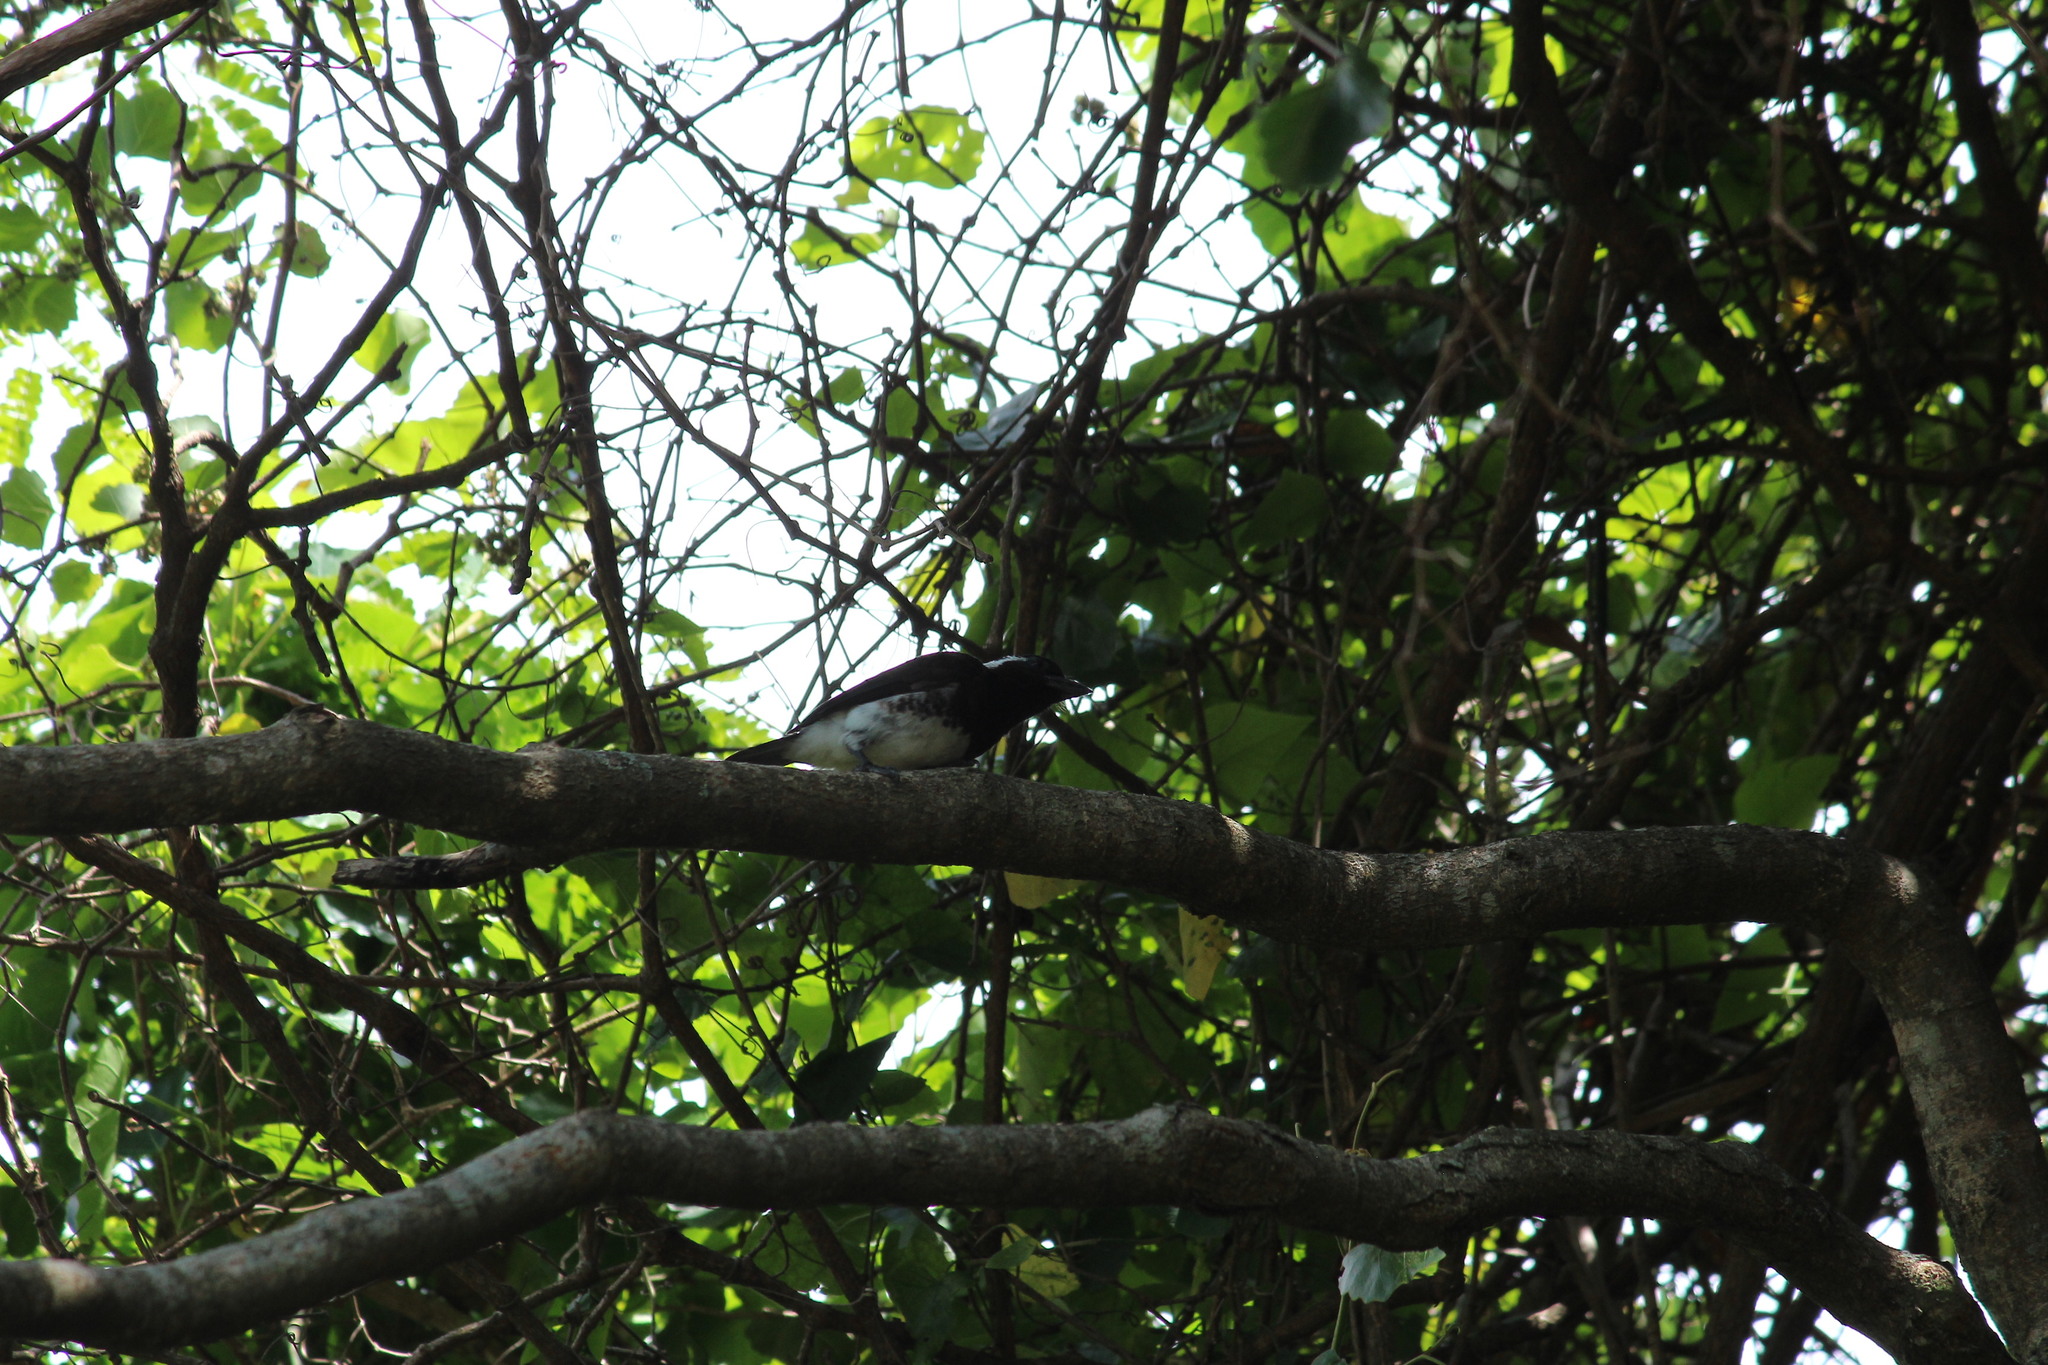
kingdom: Animalia
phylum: Chordata
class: Aves
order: Piciformes
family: Lybiidae
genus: Stactolaema
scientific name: Stactolaema leucotis
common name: White-eared barbet
